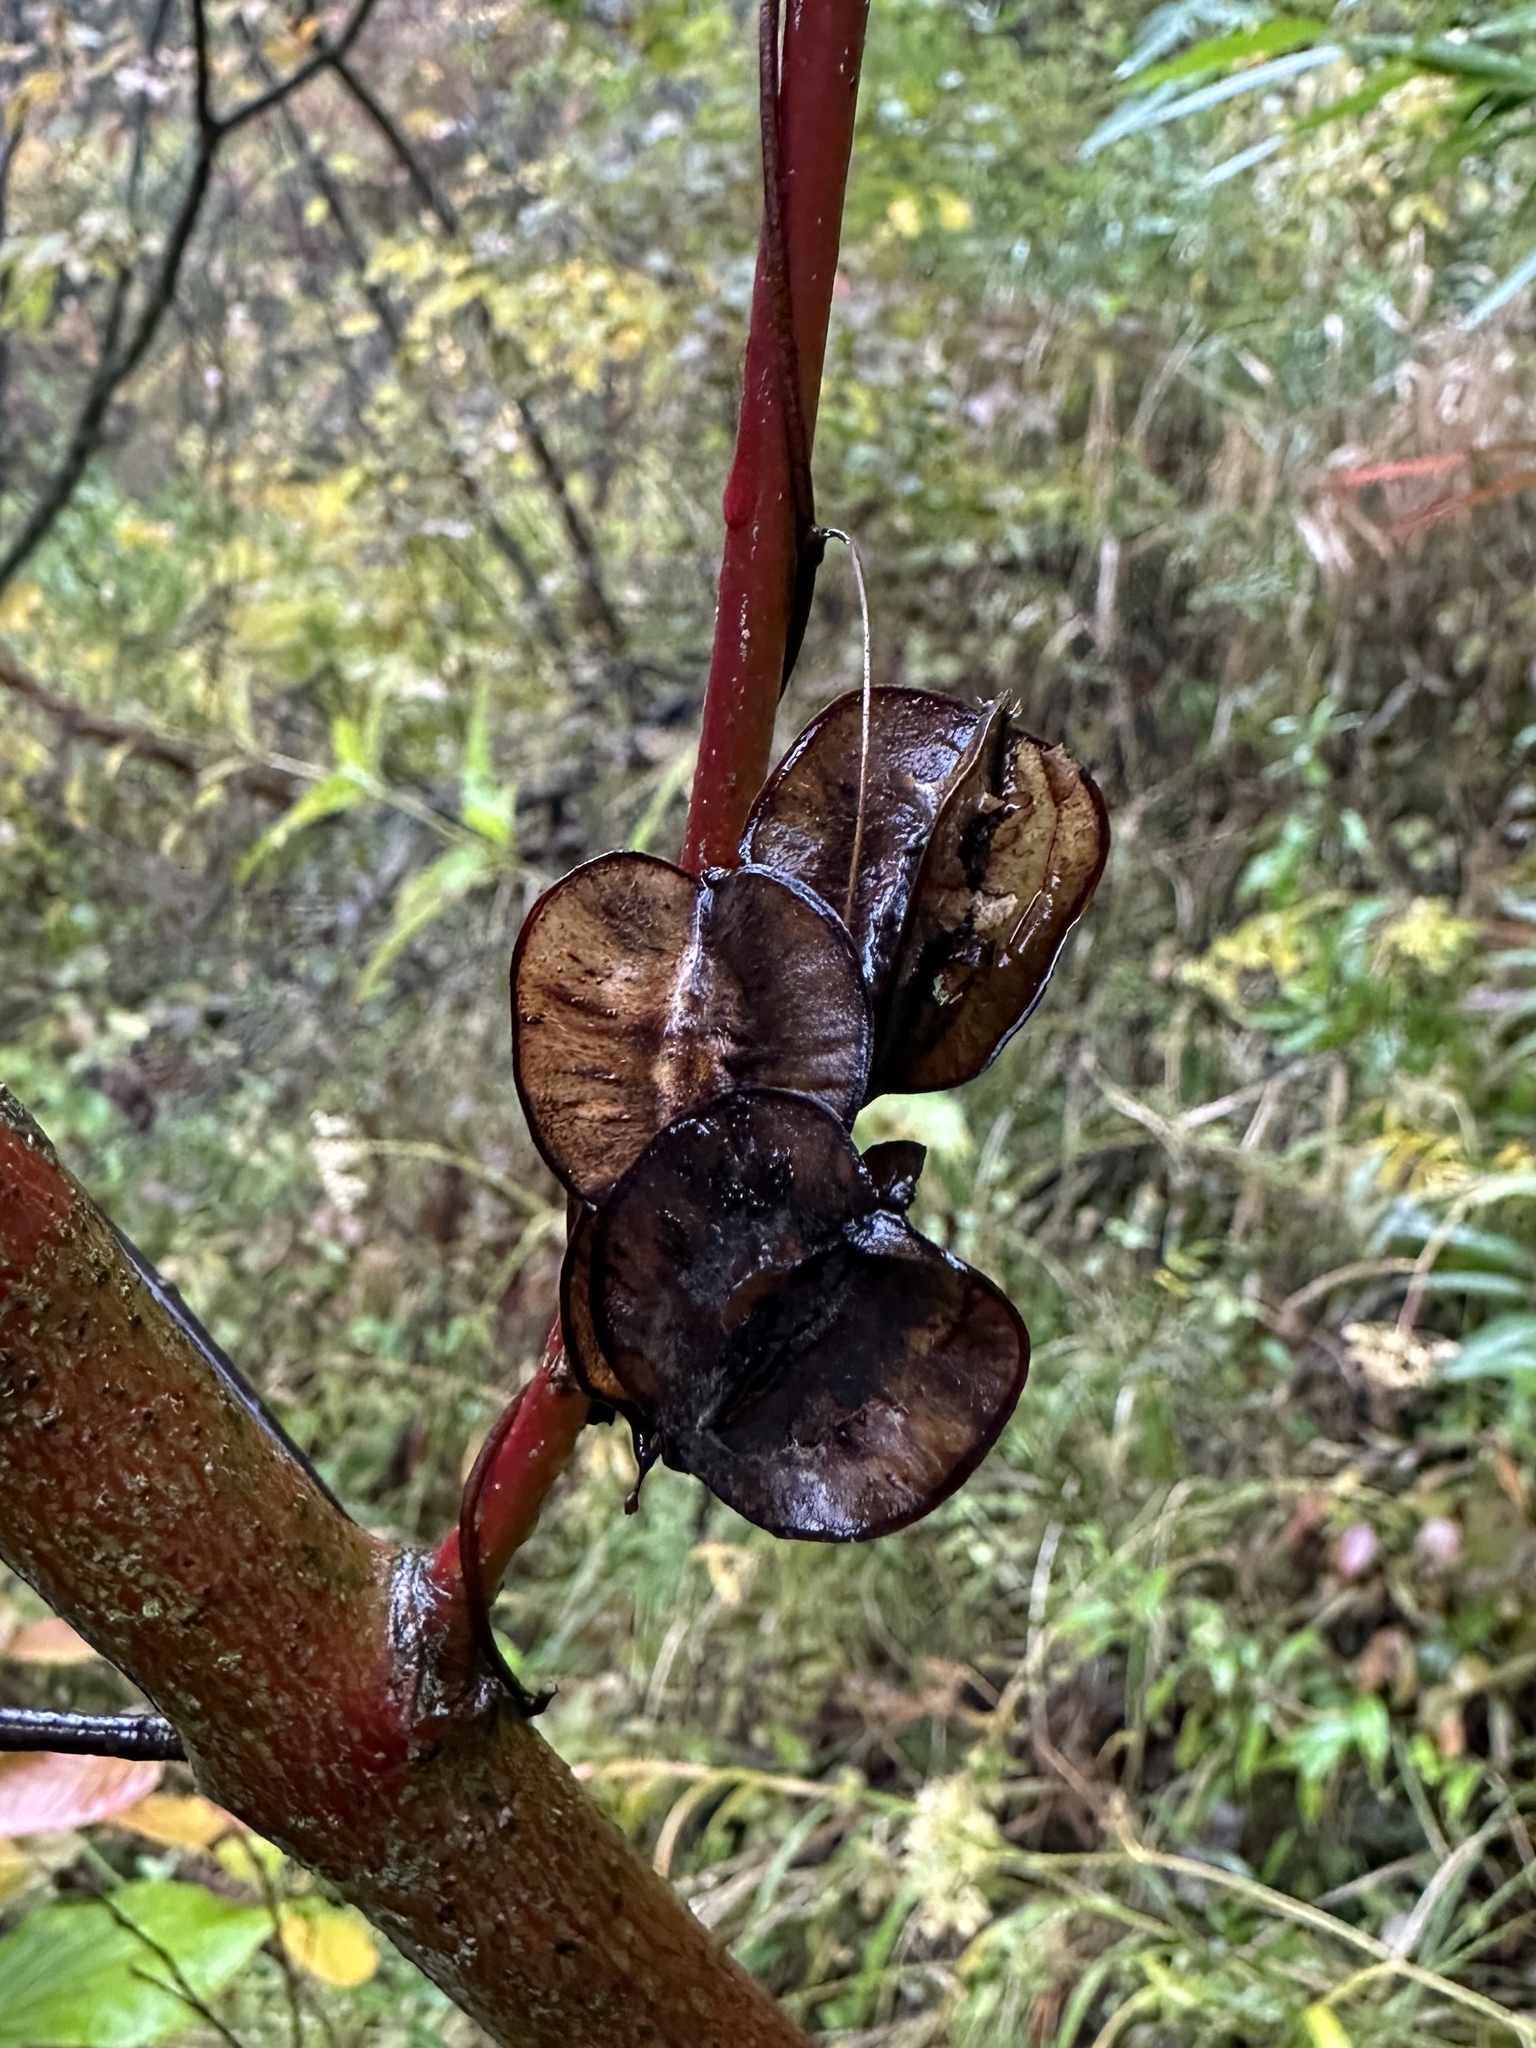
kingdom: Plantae
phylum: Tracheophyta
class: Liliopsida
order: Dioscoreales
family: Dioscoreaceae
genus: Dioscorea
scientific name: Dioscorea villosa
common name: Wild yam
